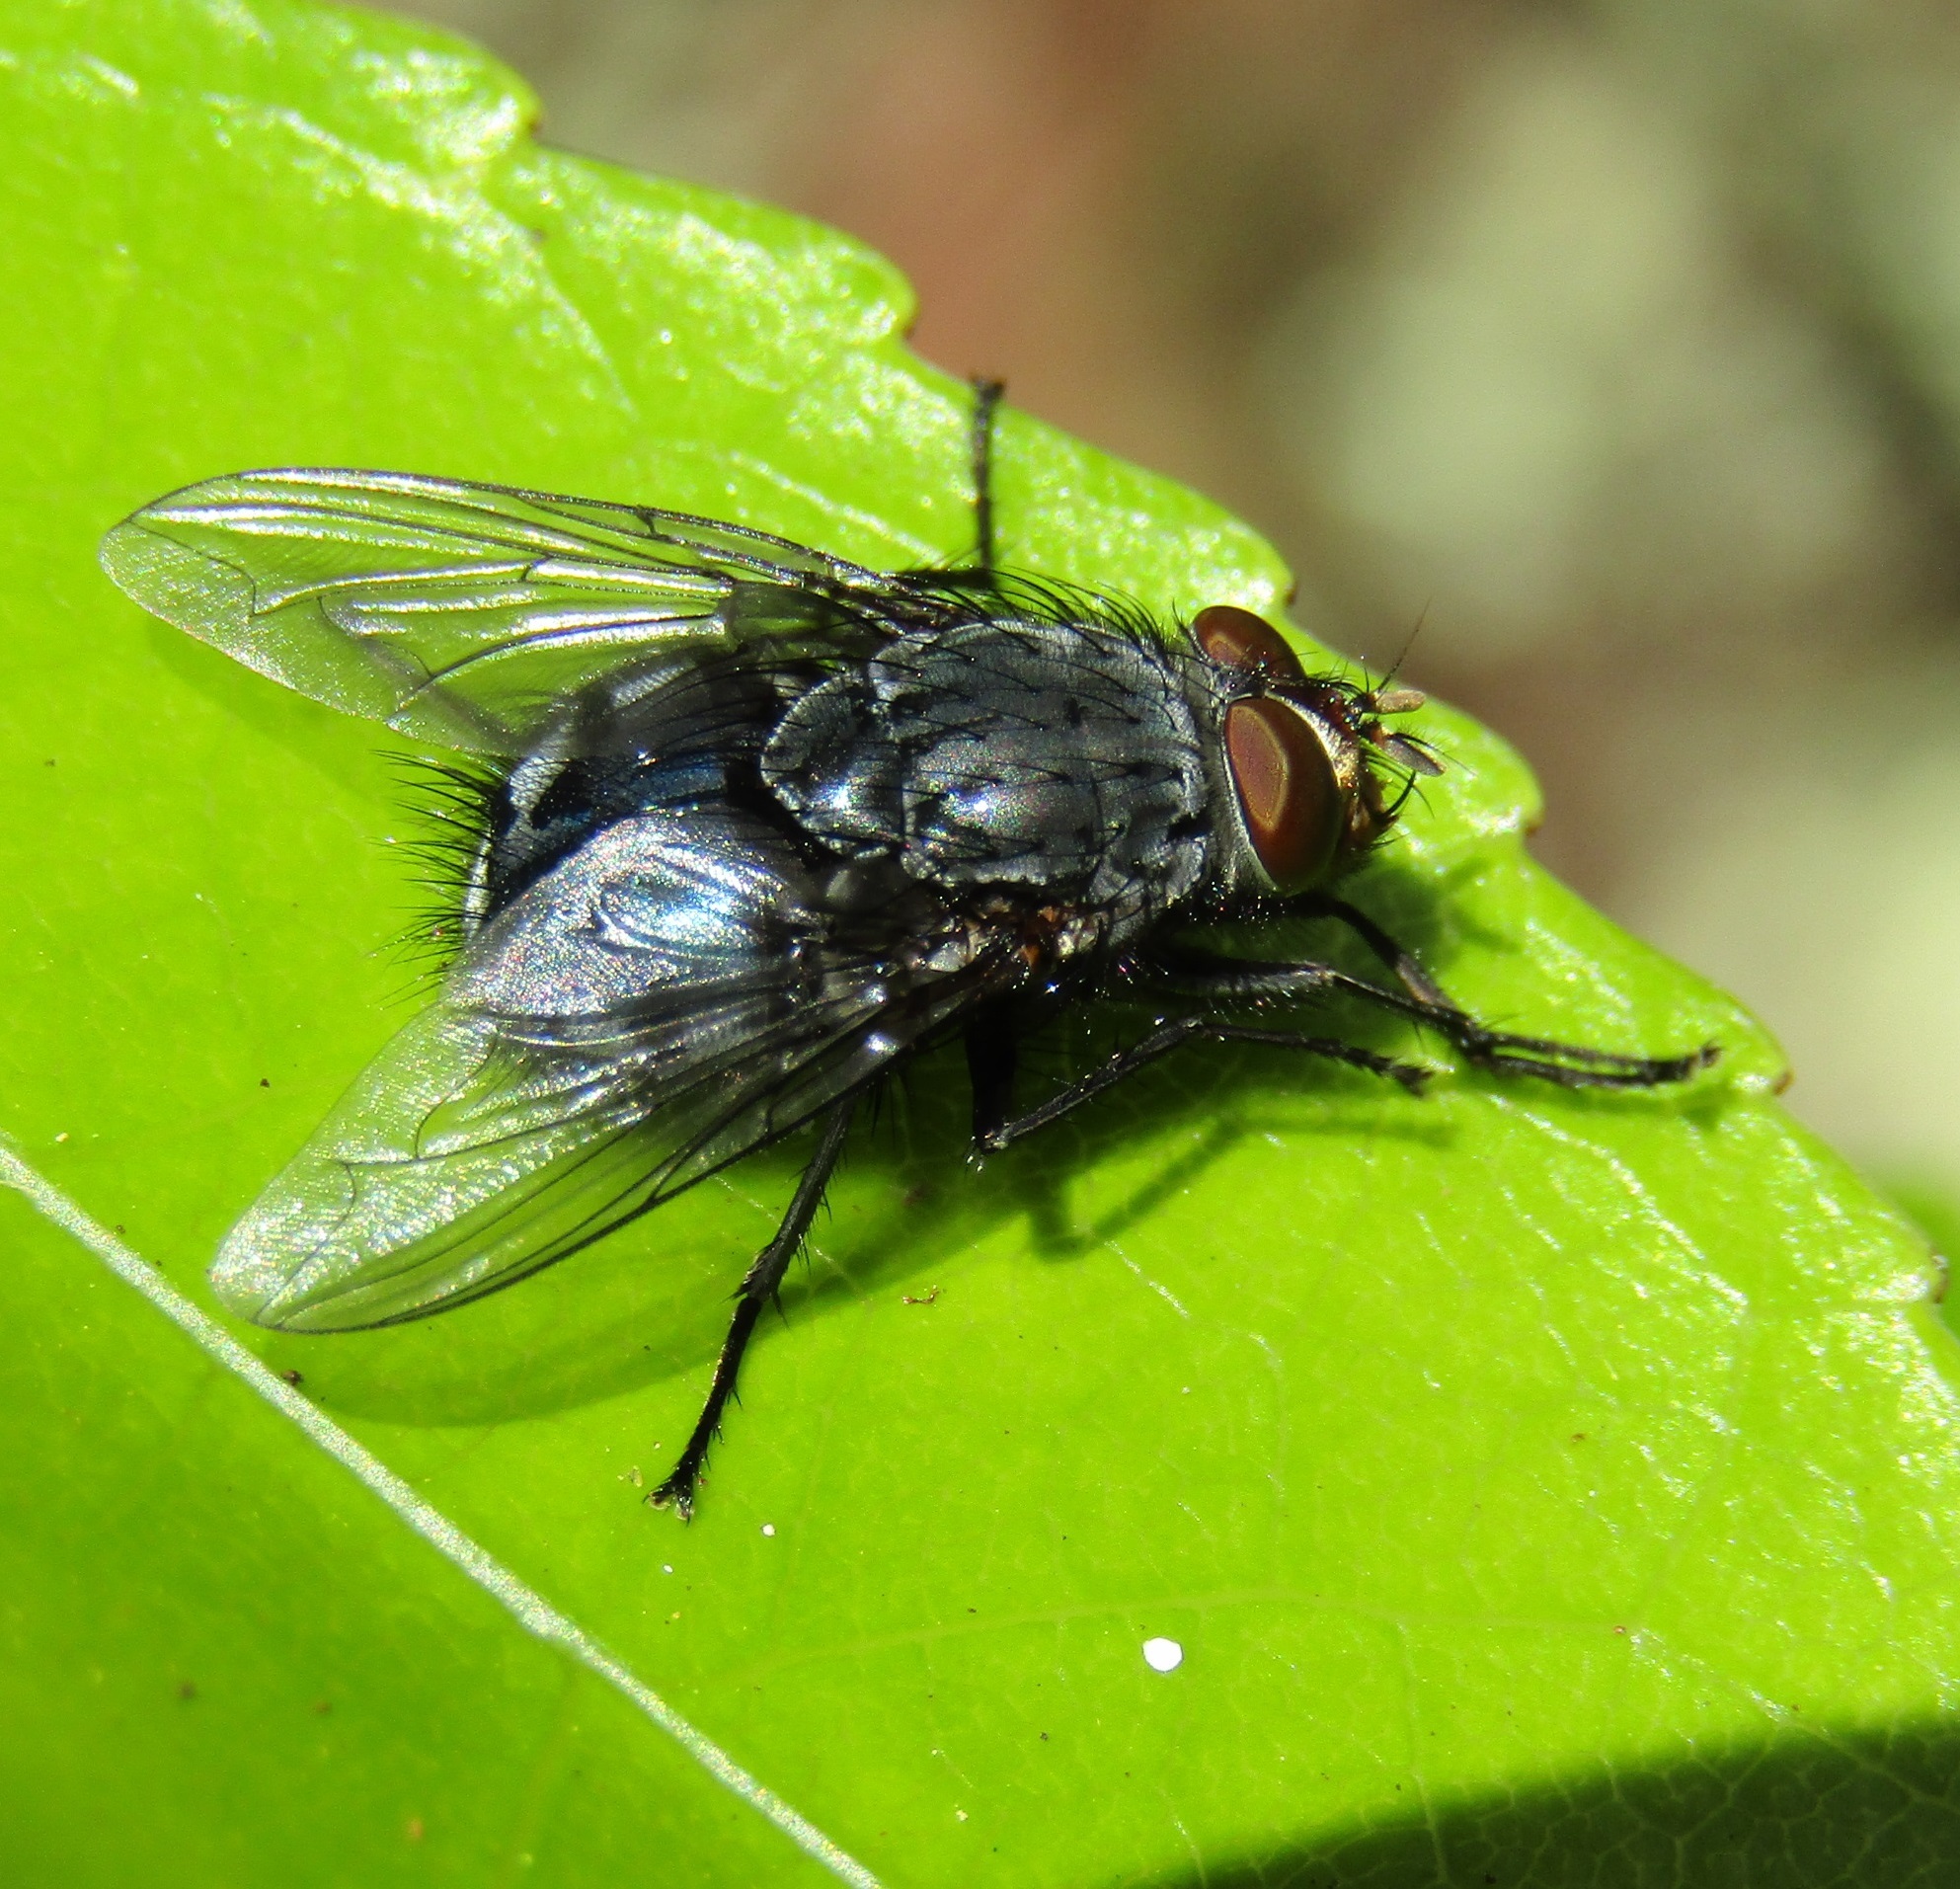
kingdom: Animalia
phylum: Arthropoda
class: Insecta
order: Diptera
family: Calliphoridae
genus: Calliphora
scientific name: Calliphora vicina
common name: Common blow flie
